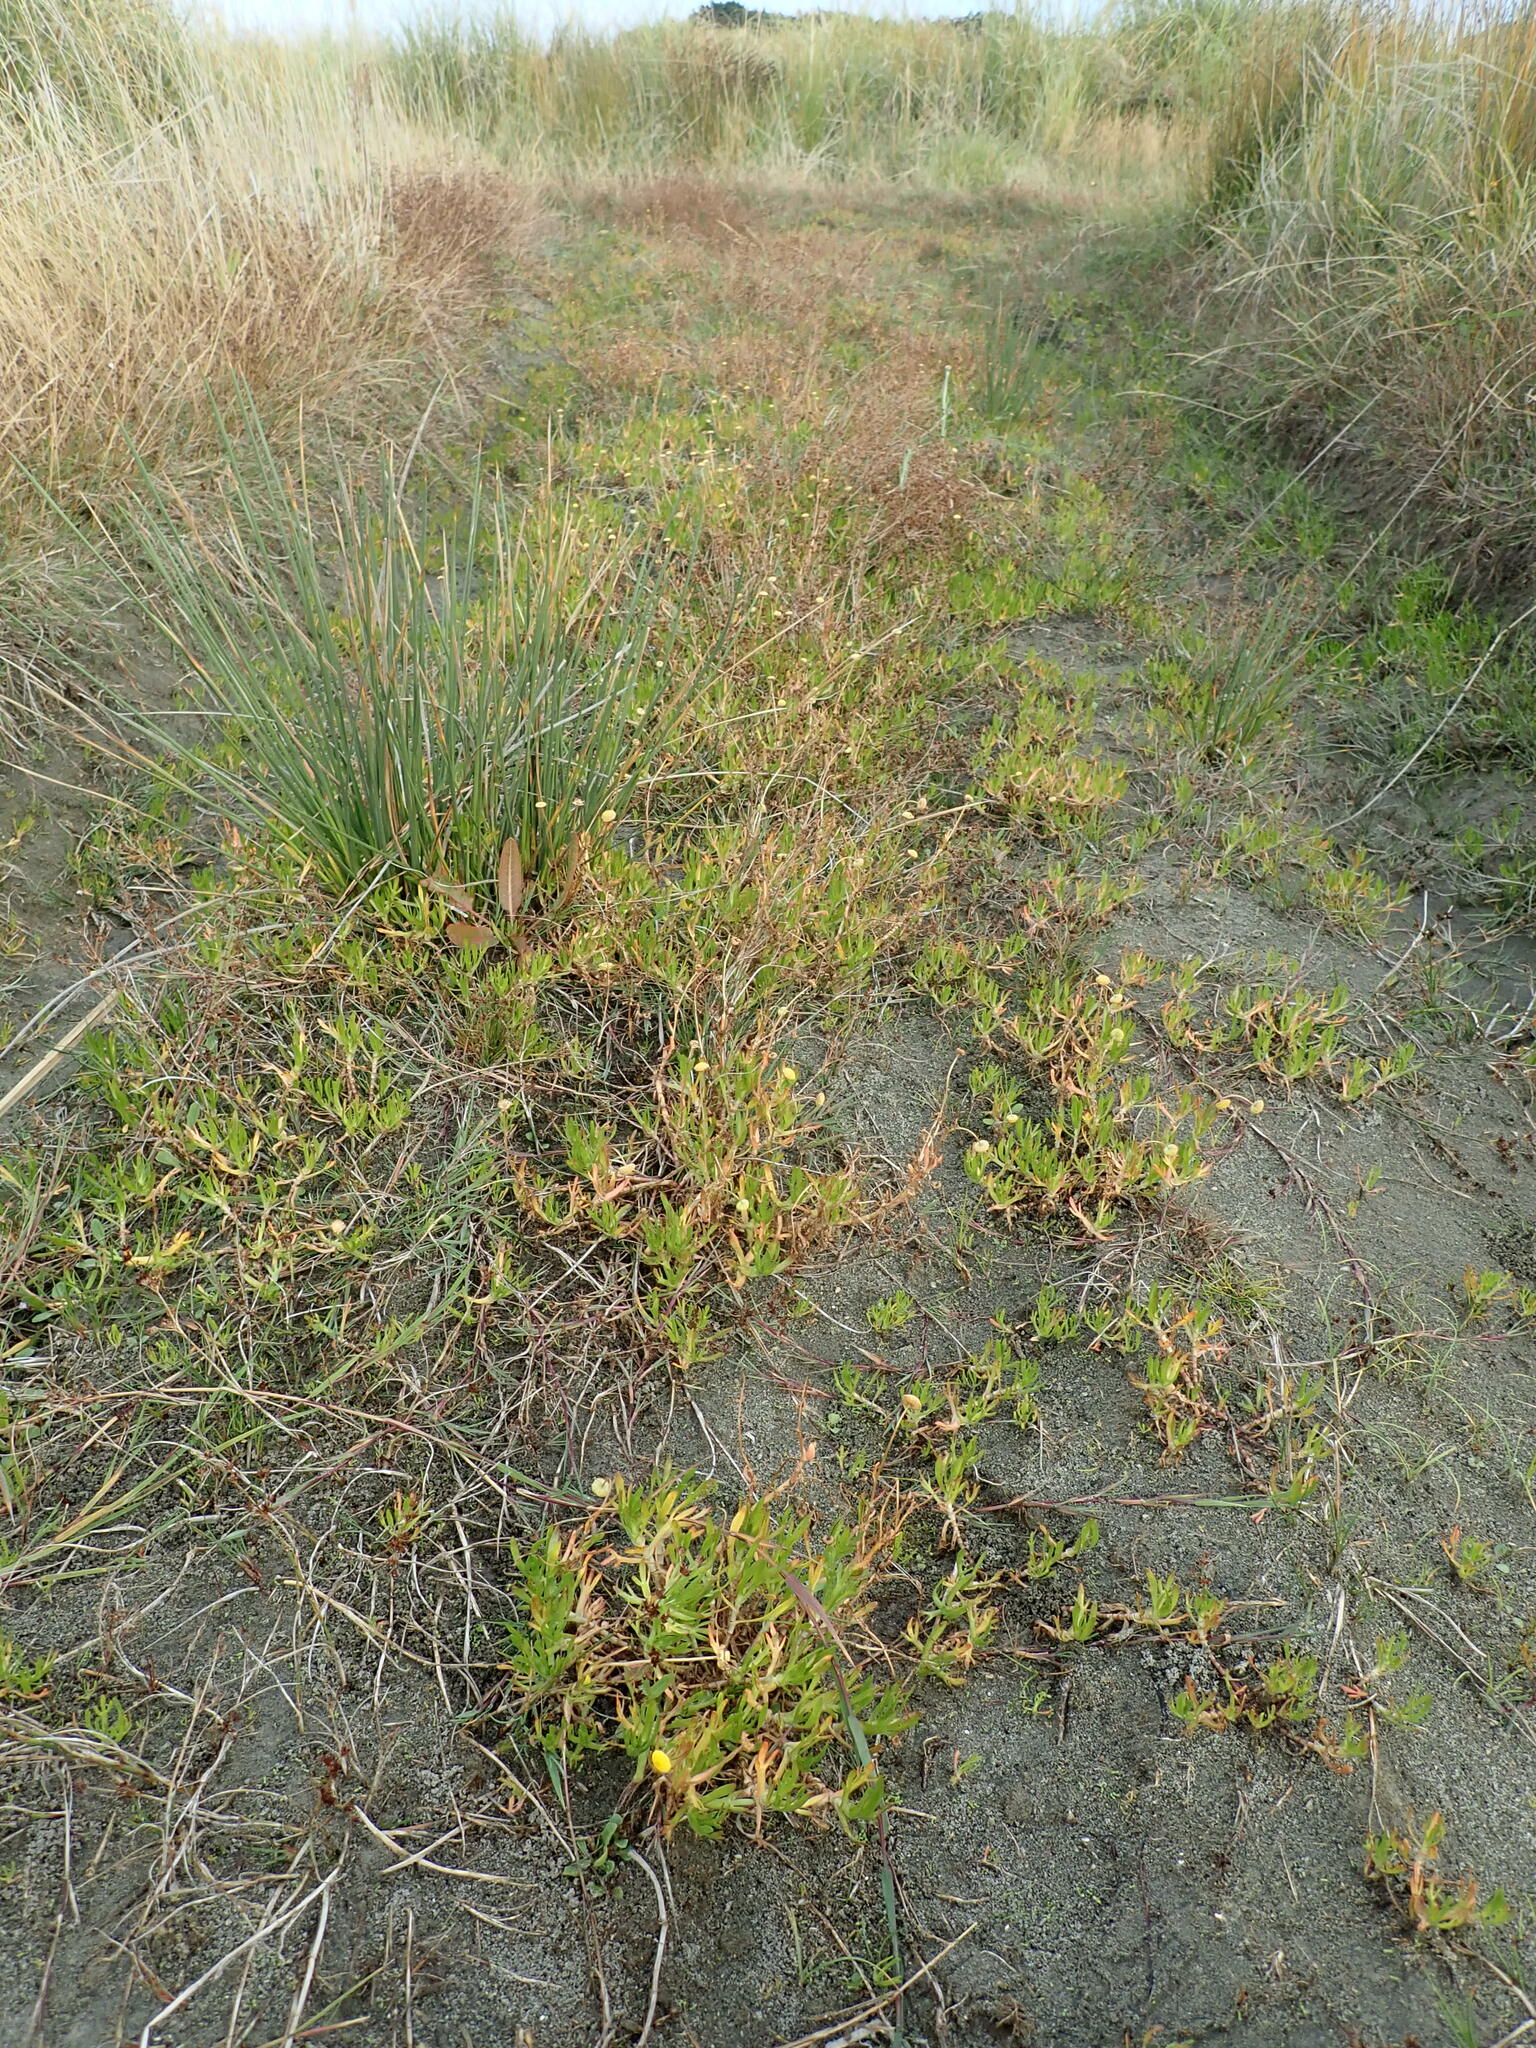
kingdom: Plantae
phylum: Tracheophyta
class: Magnoliopsida
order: Asterales
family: Asteraceae
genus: Cotula
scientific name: Cotula coronopifolia
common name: Buttonweed
